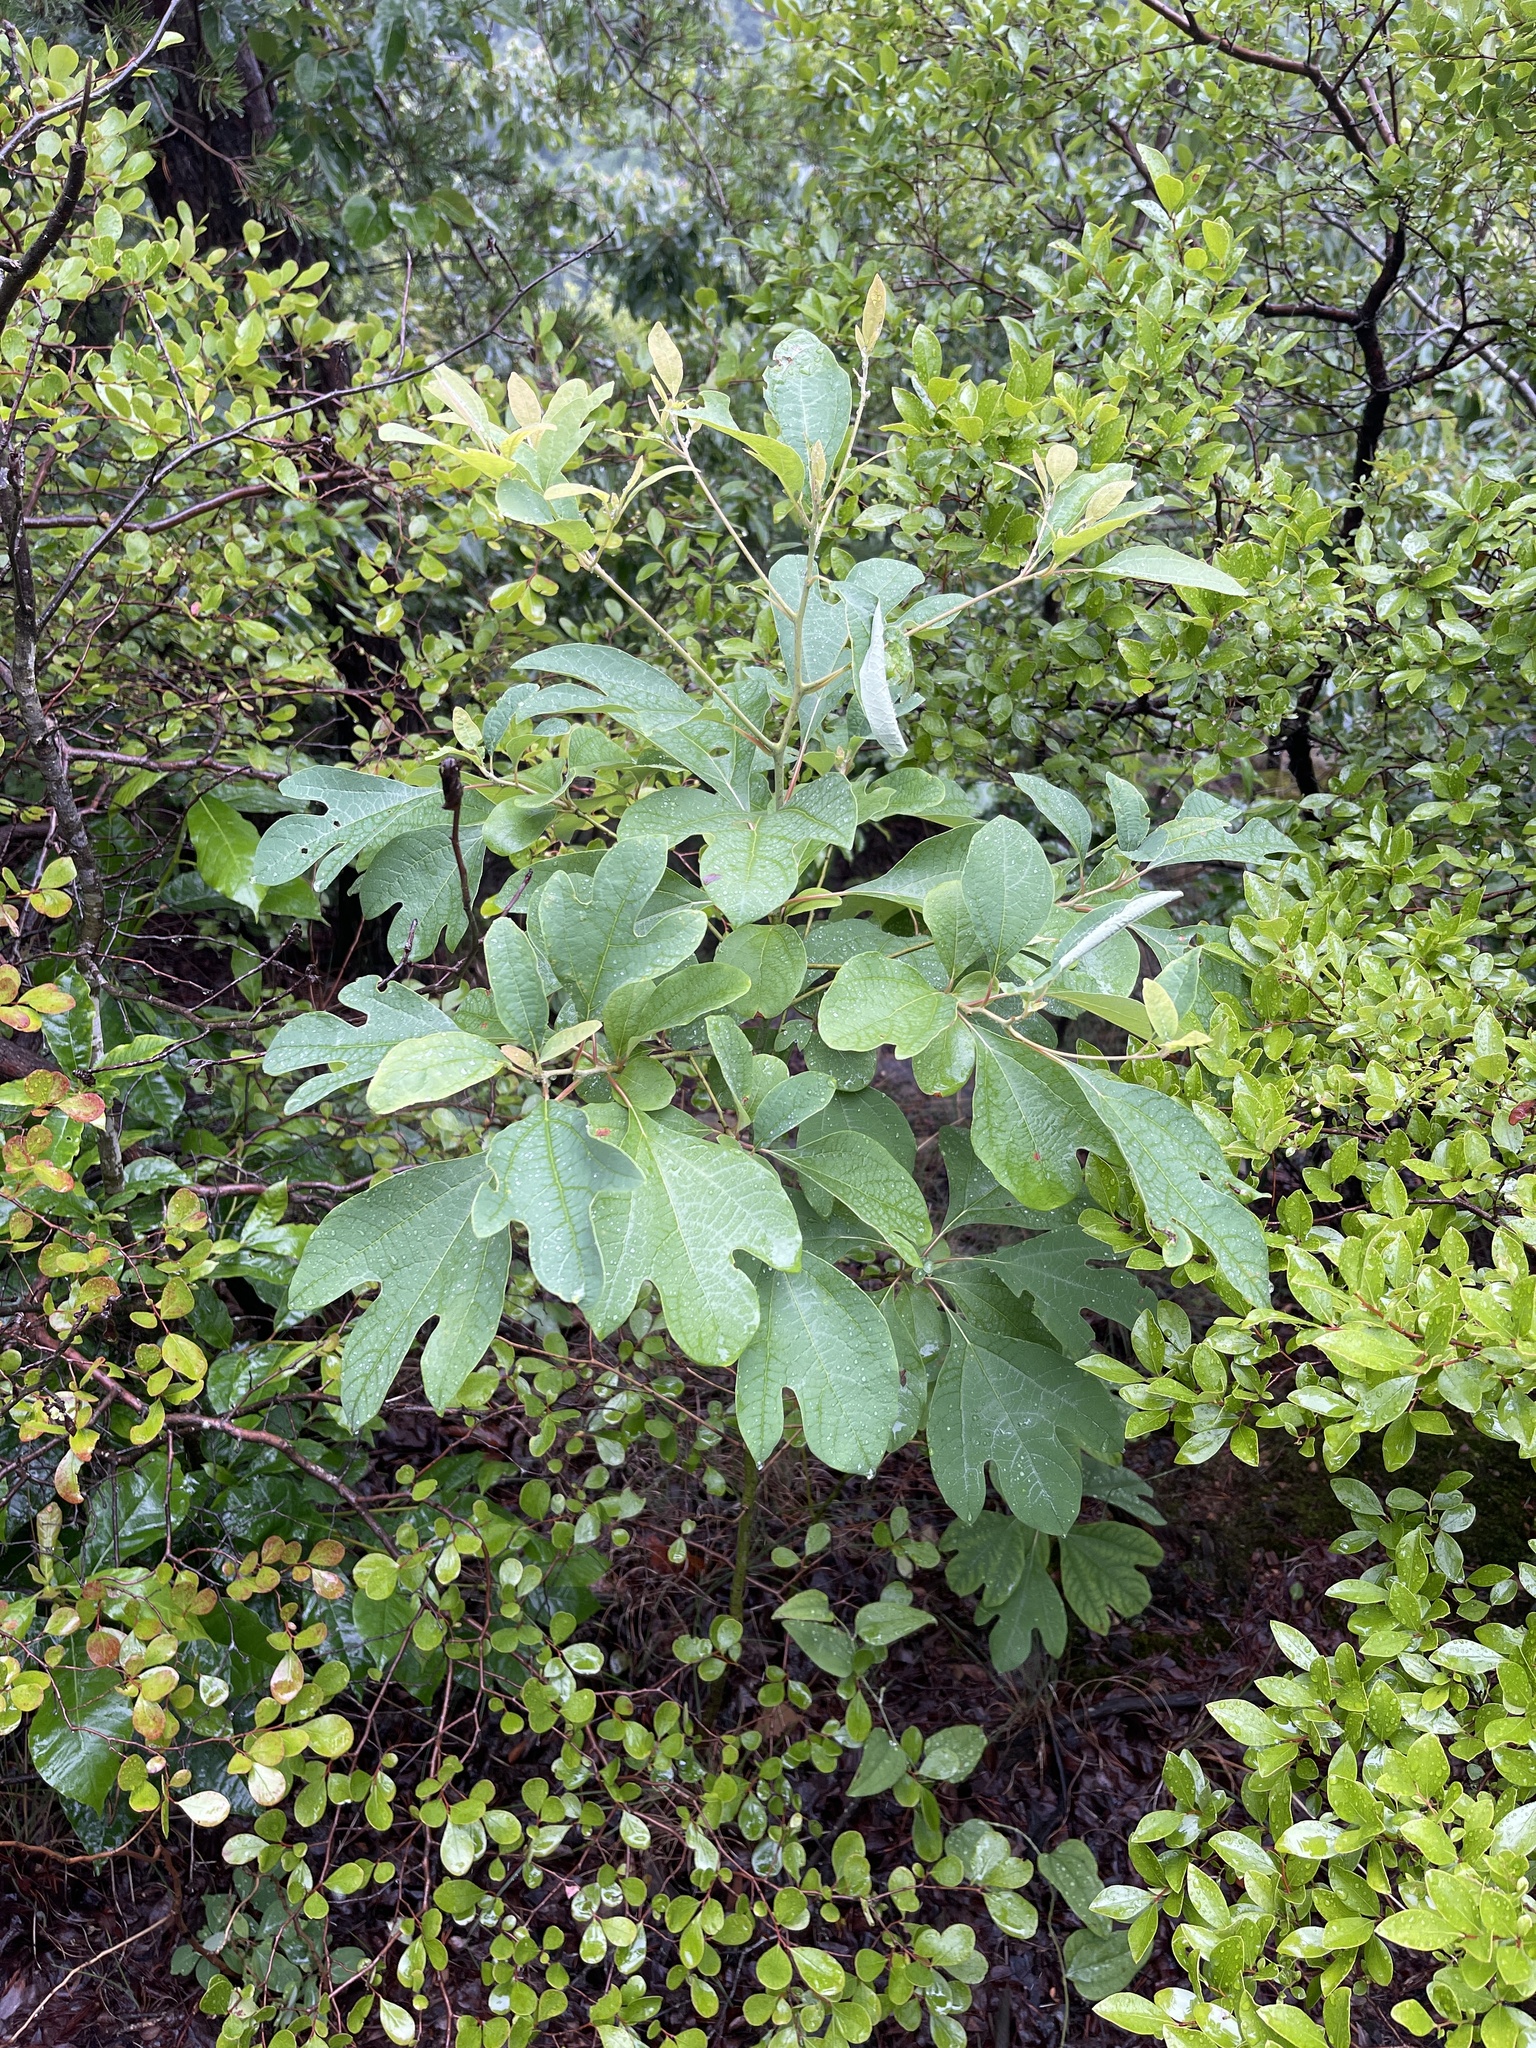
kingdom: Plantae
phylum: Tracheophyta
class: Magnoliopsida
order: Laurales
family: Lauraceae
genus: Sassafras
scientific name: Sassafras albidum
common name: Sassafras
